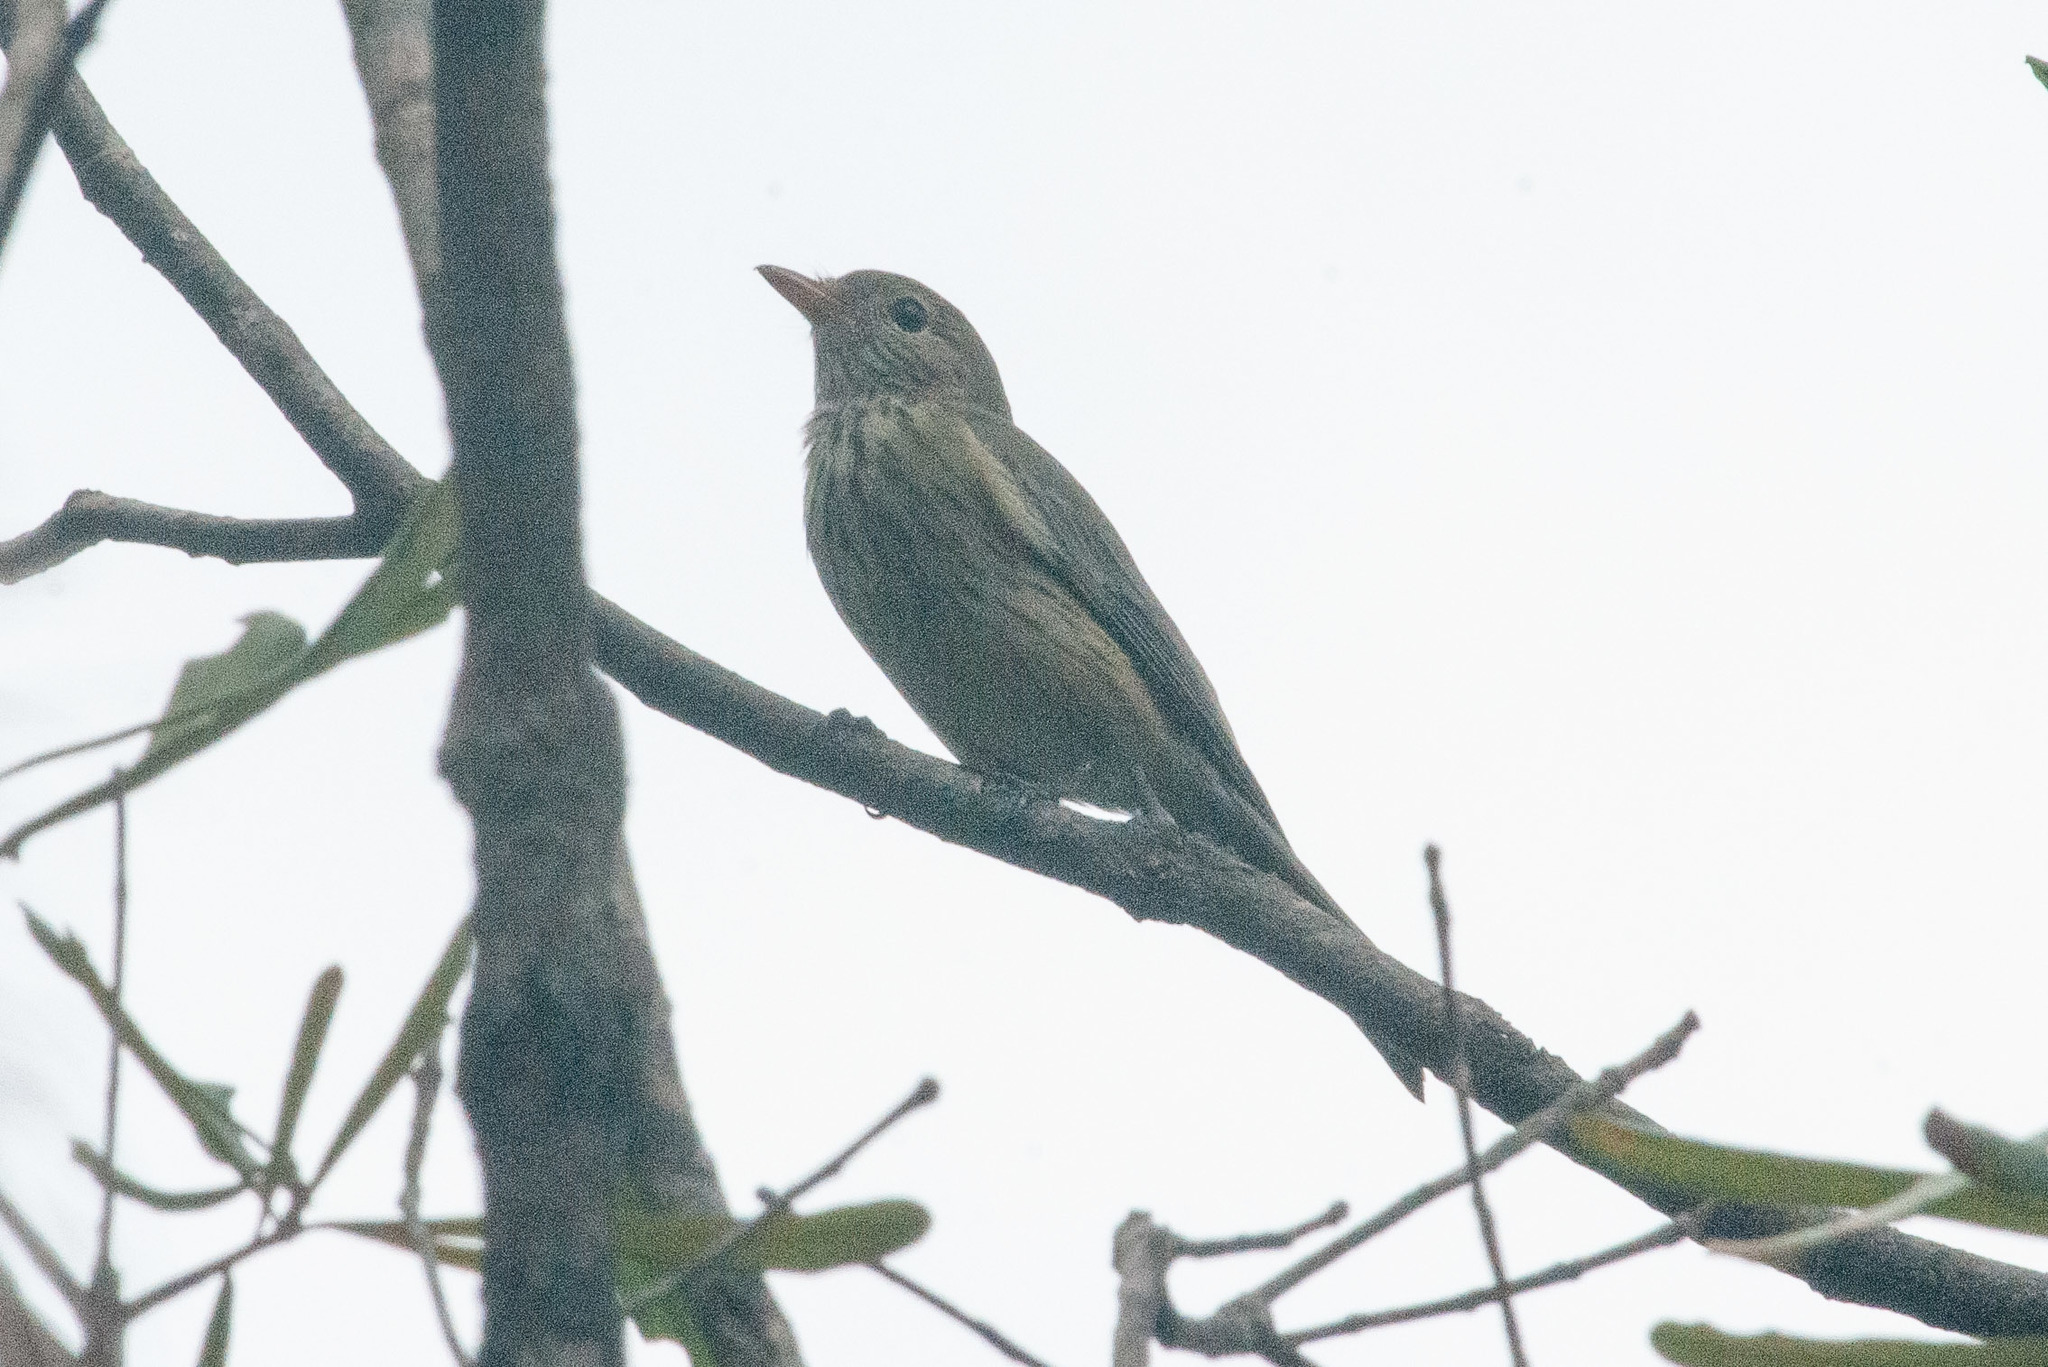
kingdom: Animalia
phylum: Chordata
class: Aves
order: Passeriformes
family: Pachycephalidae
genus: Pachycephala
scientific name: Pachycephala rufiventris
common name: Rufous whistler
